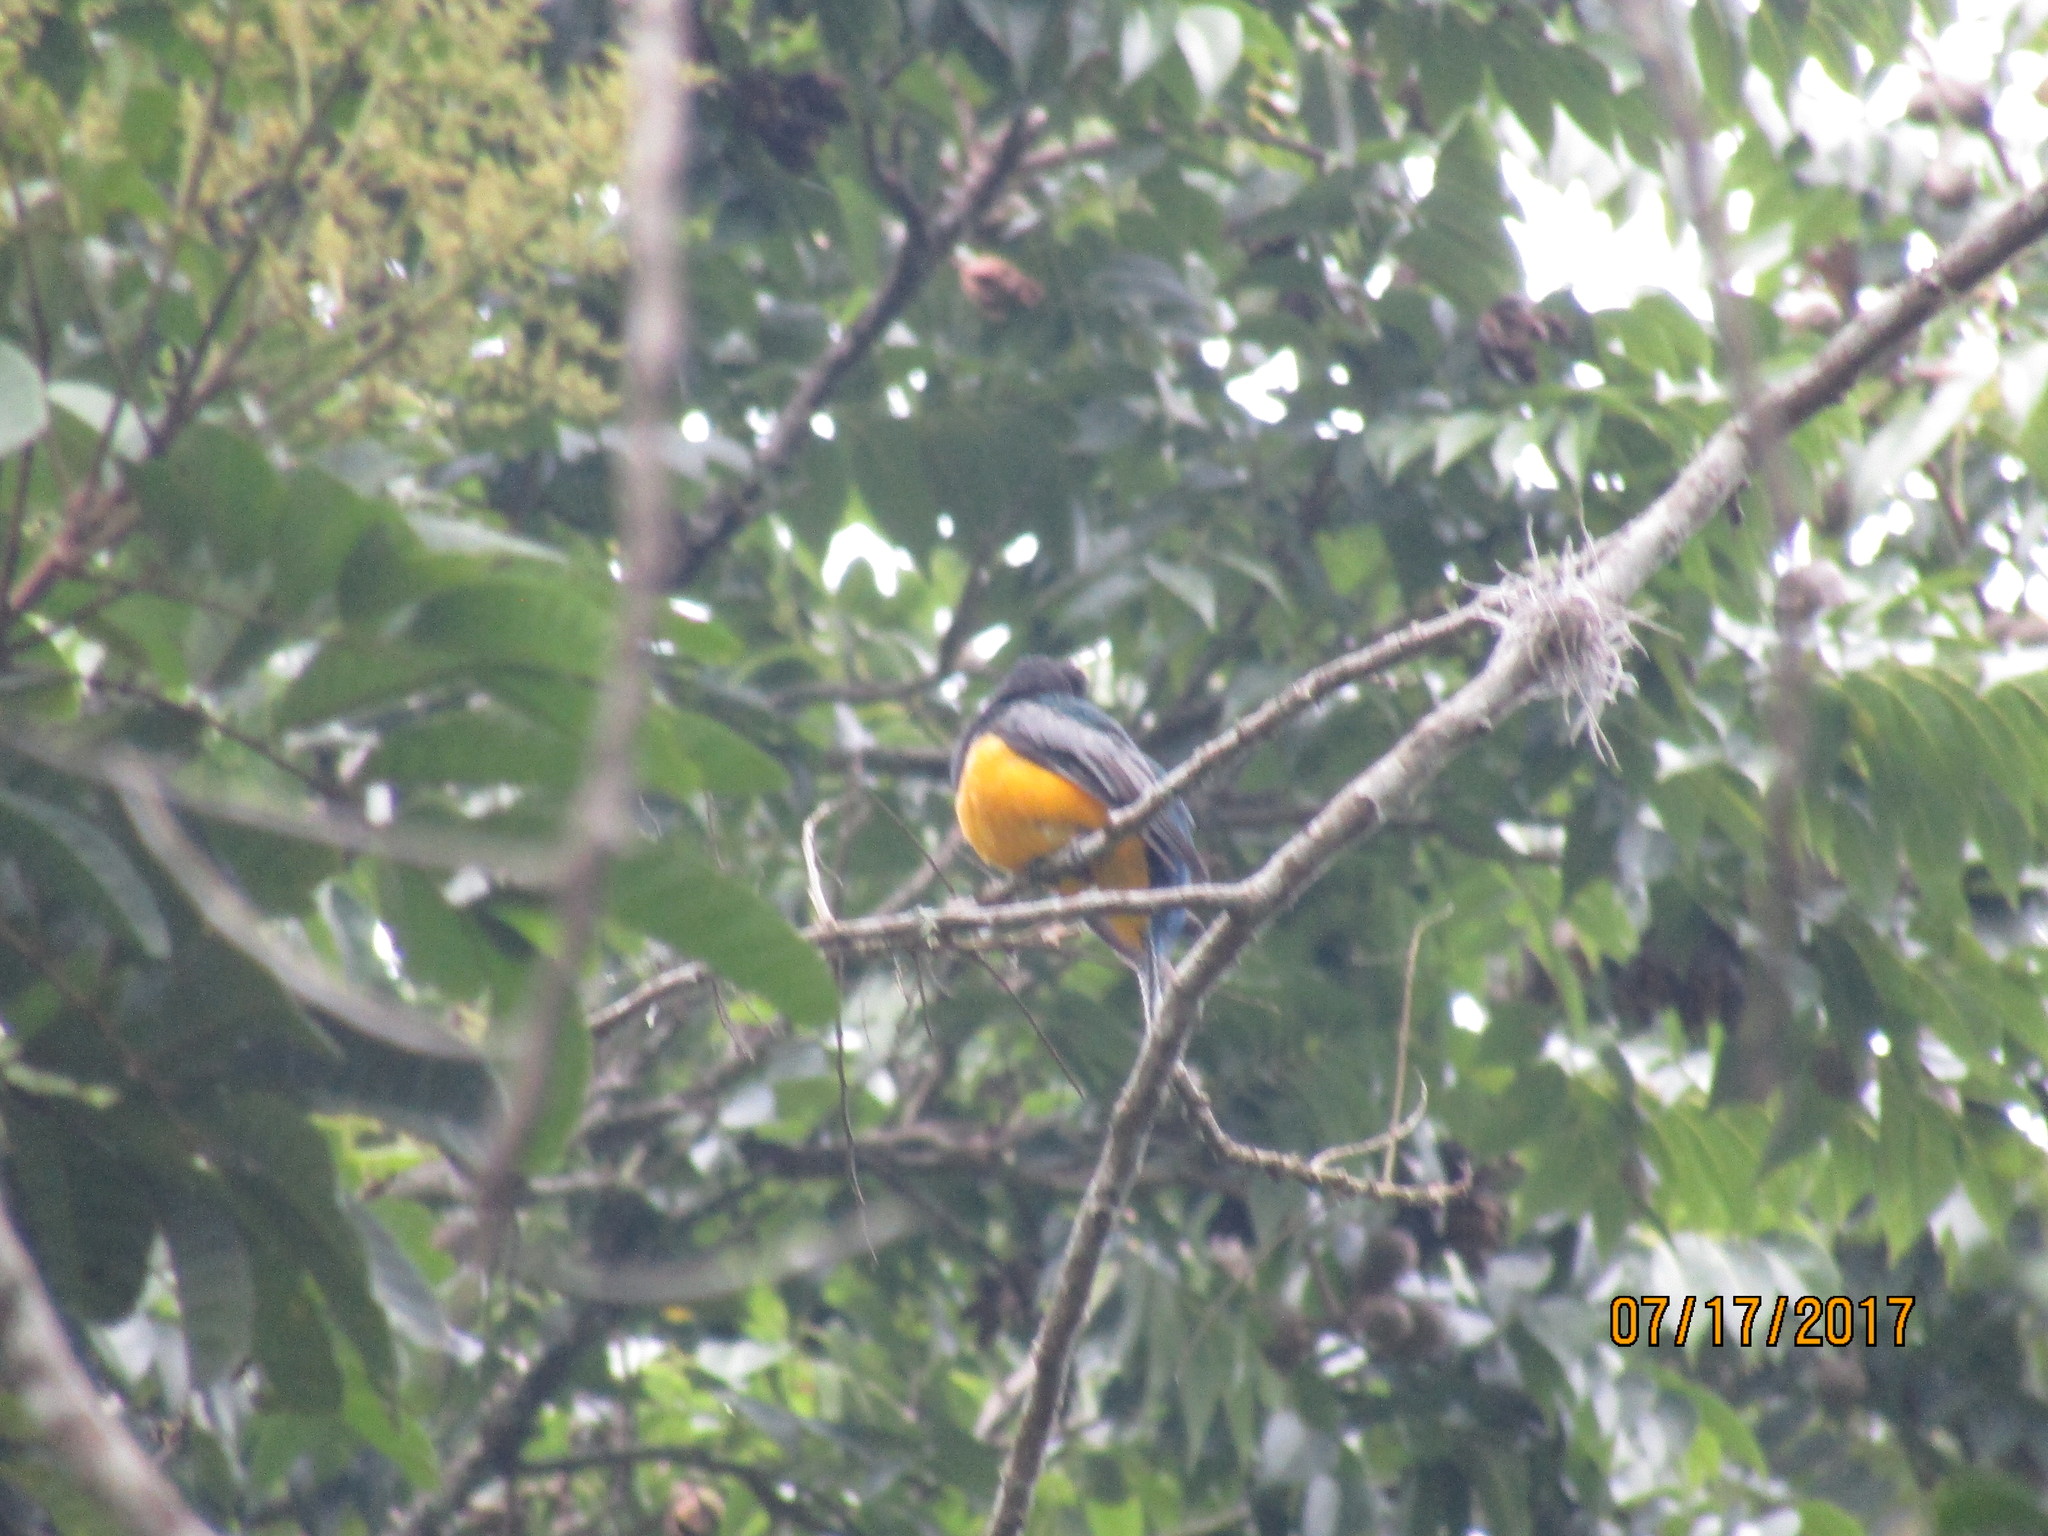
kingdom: Animalia
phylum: Chordata
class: Aves
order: Trogoniformes
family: Trogonidae
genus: Trogon
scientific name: Trogon caligatus
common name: Gartered trogon
